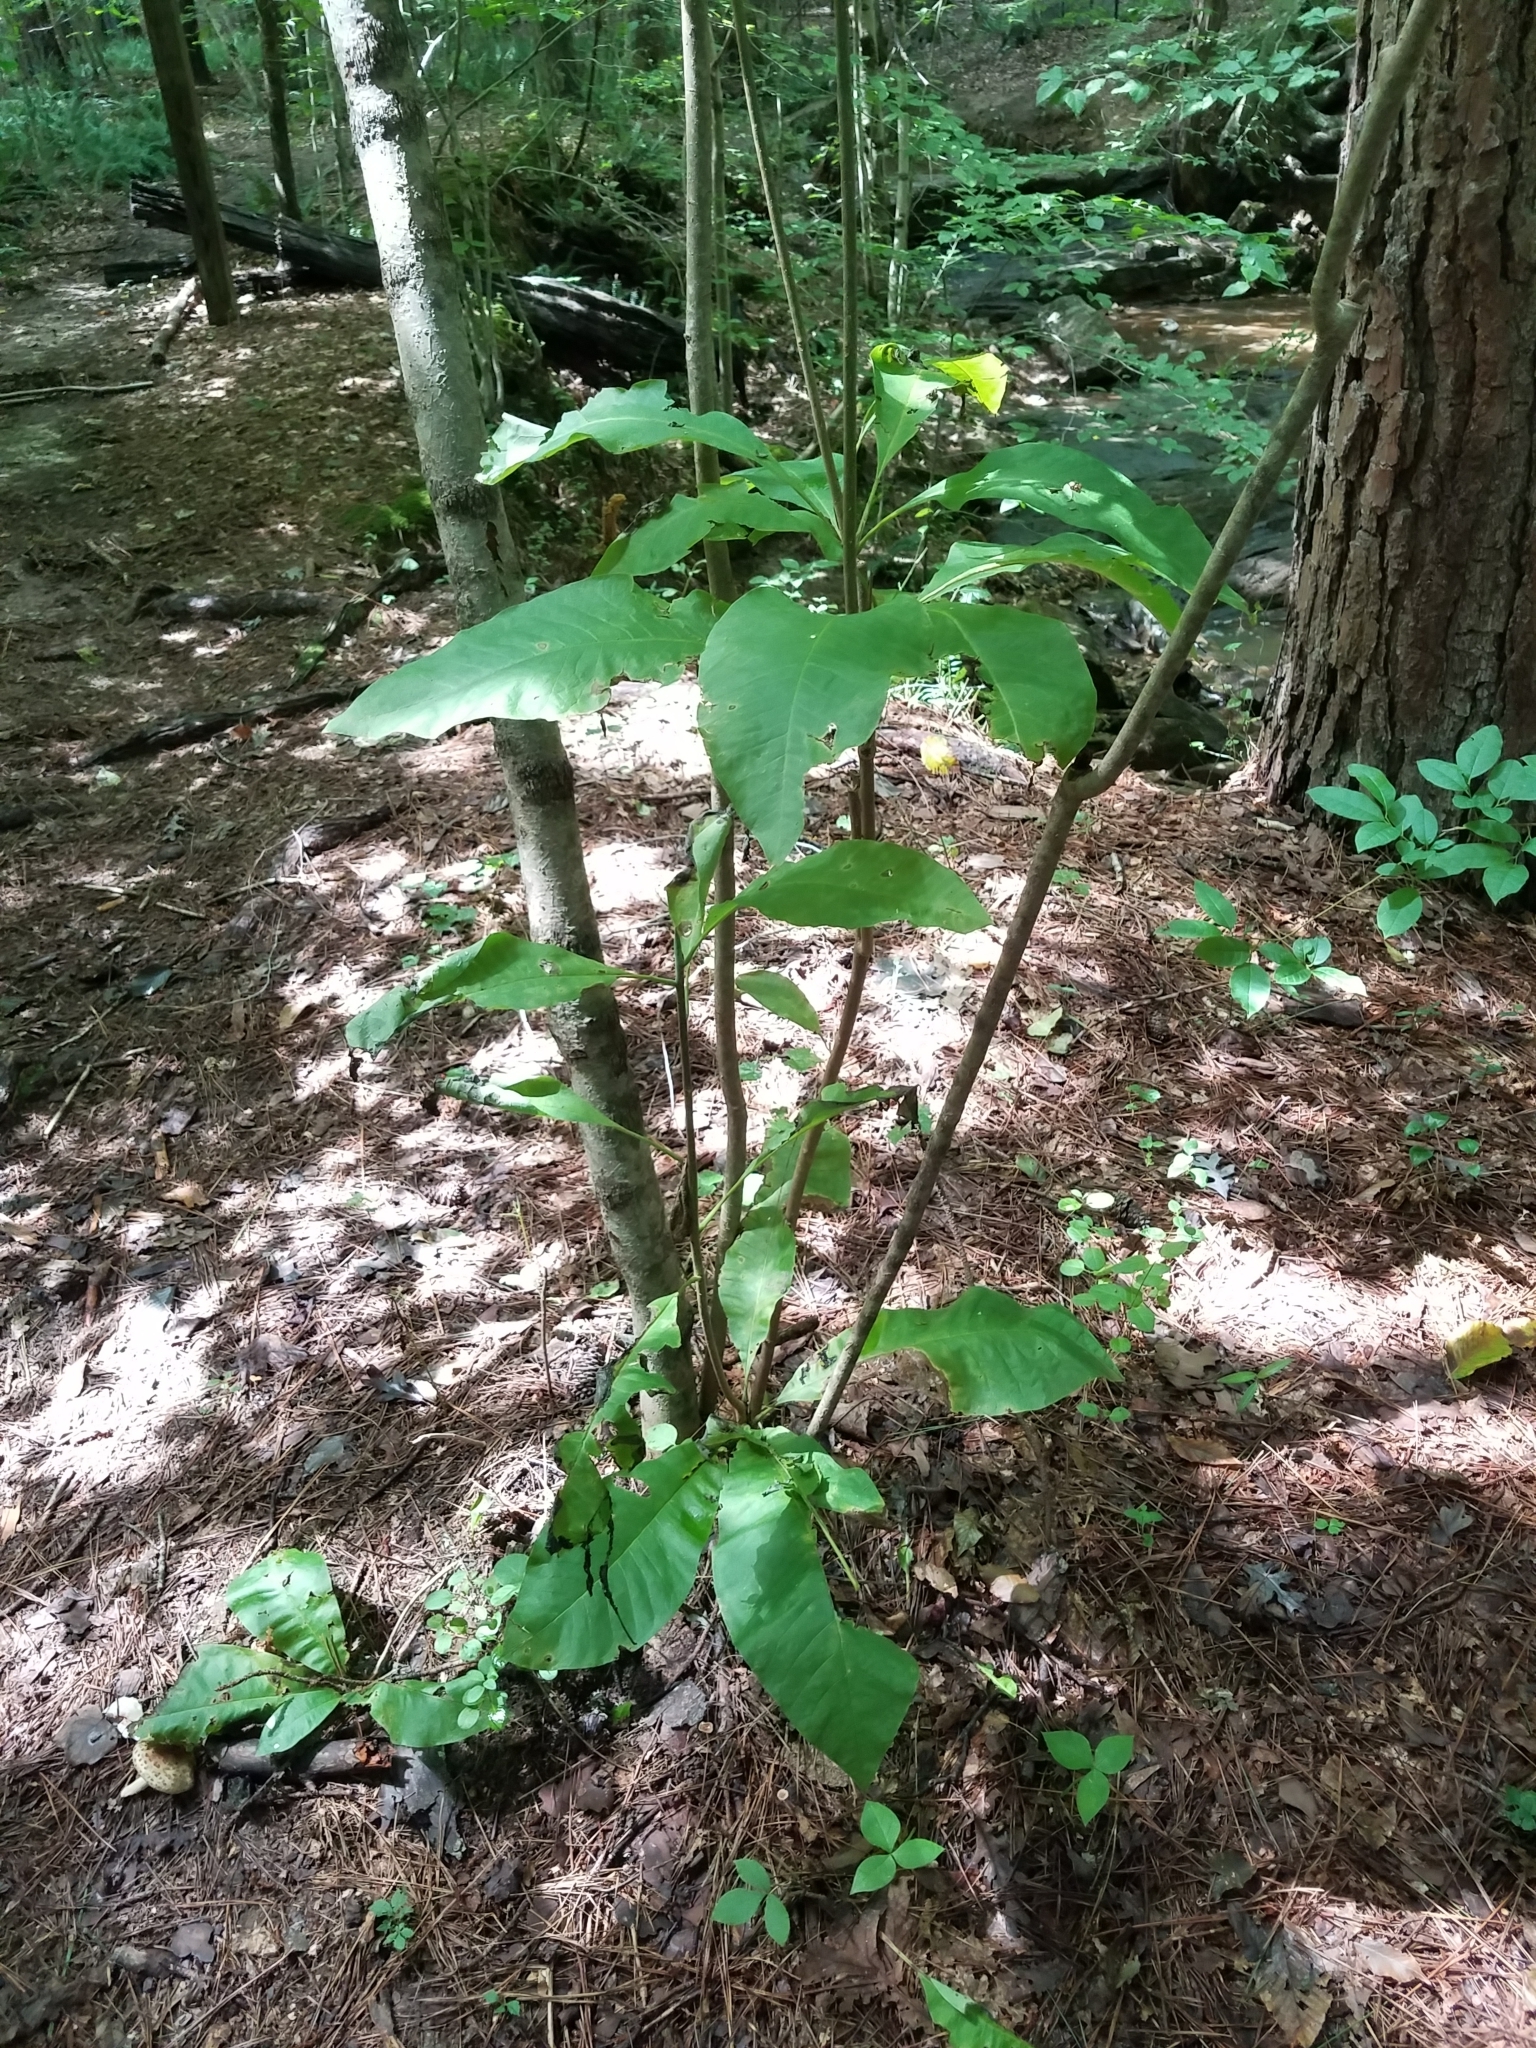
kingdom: Plantae
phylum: Tracheophyta
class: Magnoliopsida
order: Magnoliales
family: Magnoliaceae
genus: Magnolia
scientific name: Magnolia tripetala
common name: Umbrella magnolia
